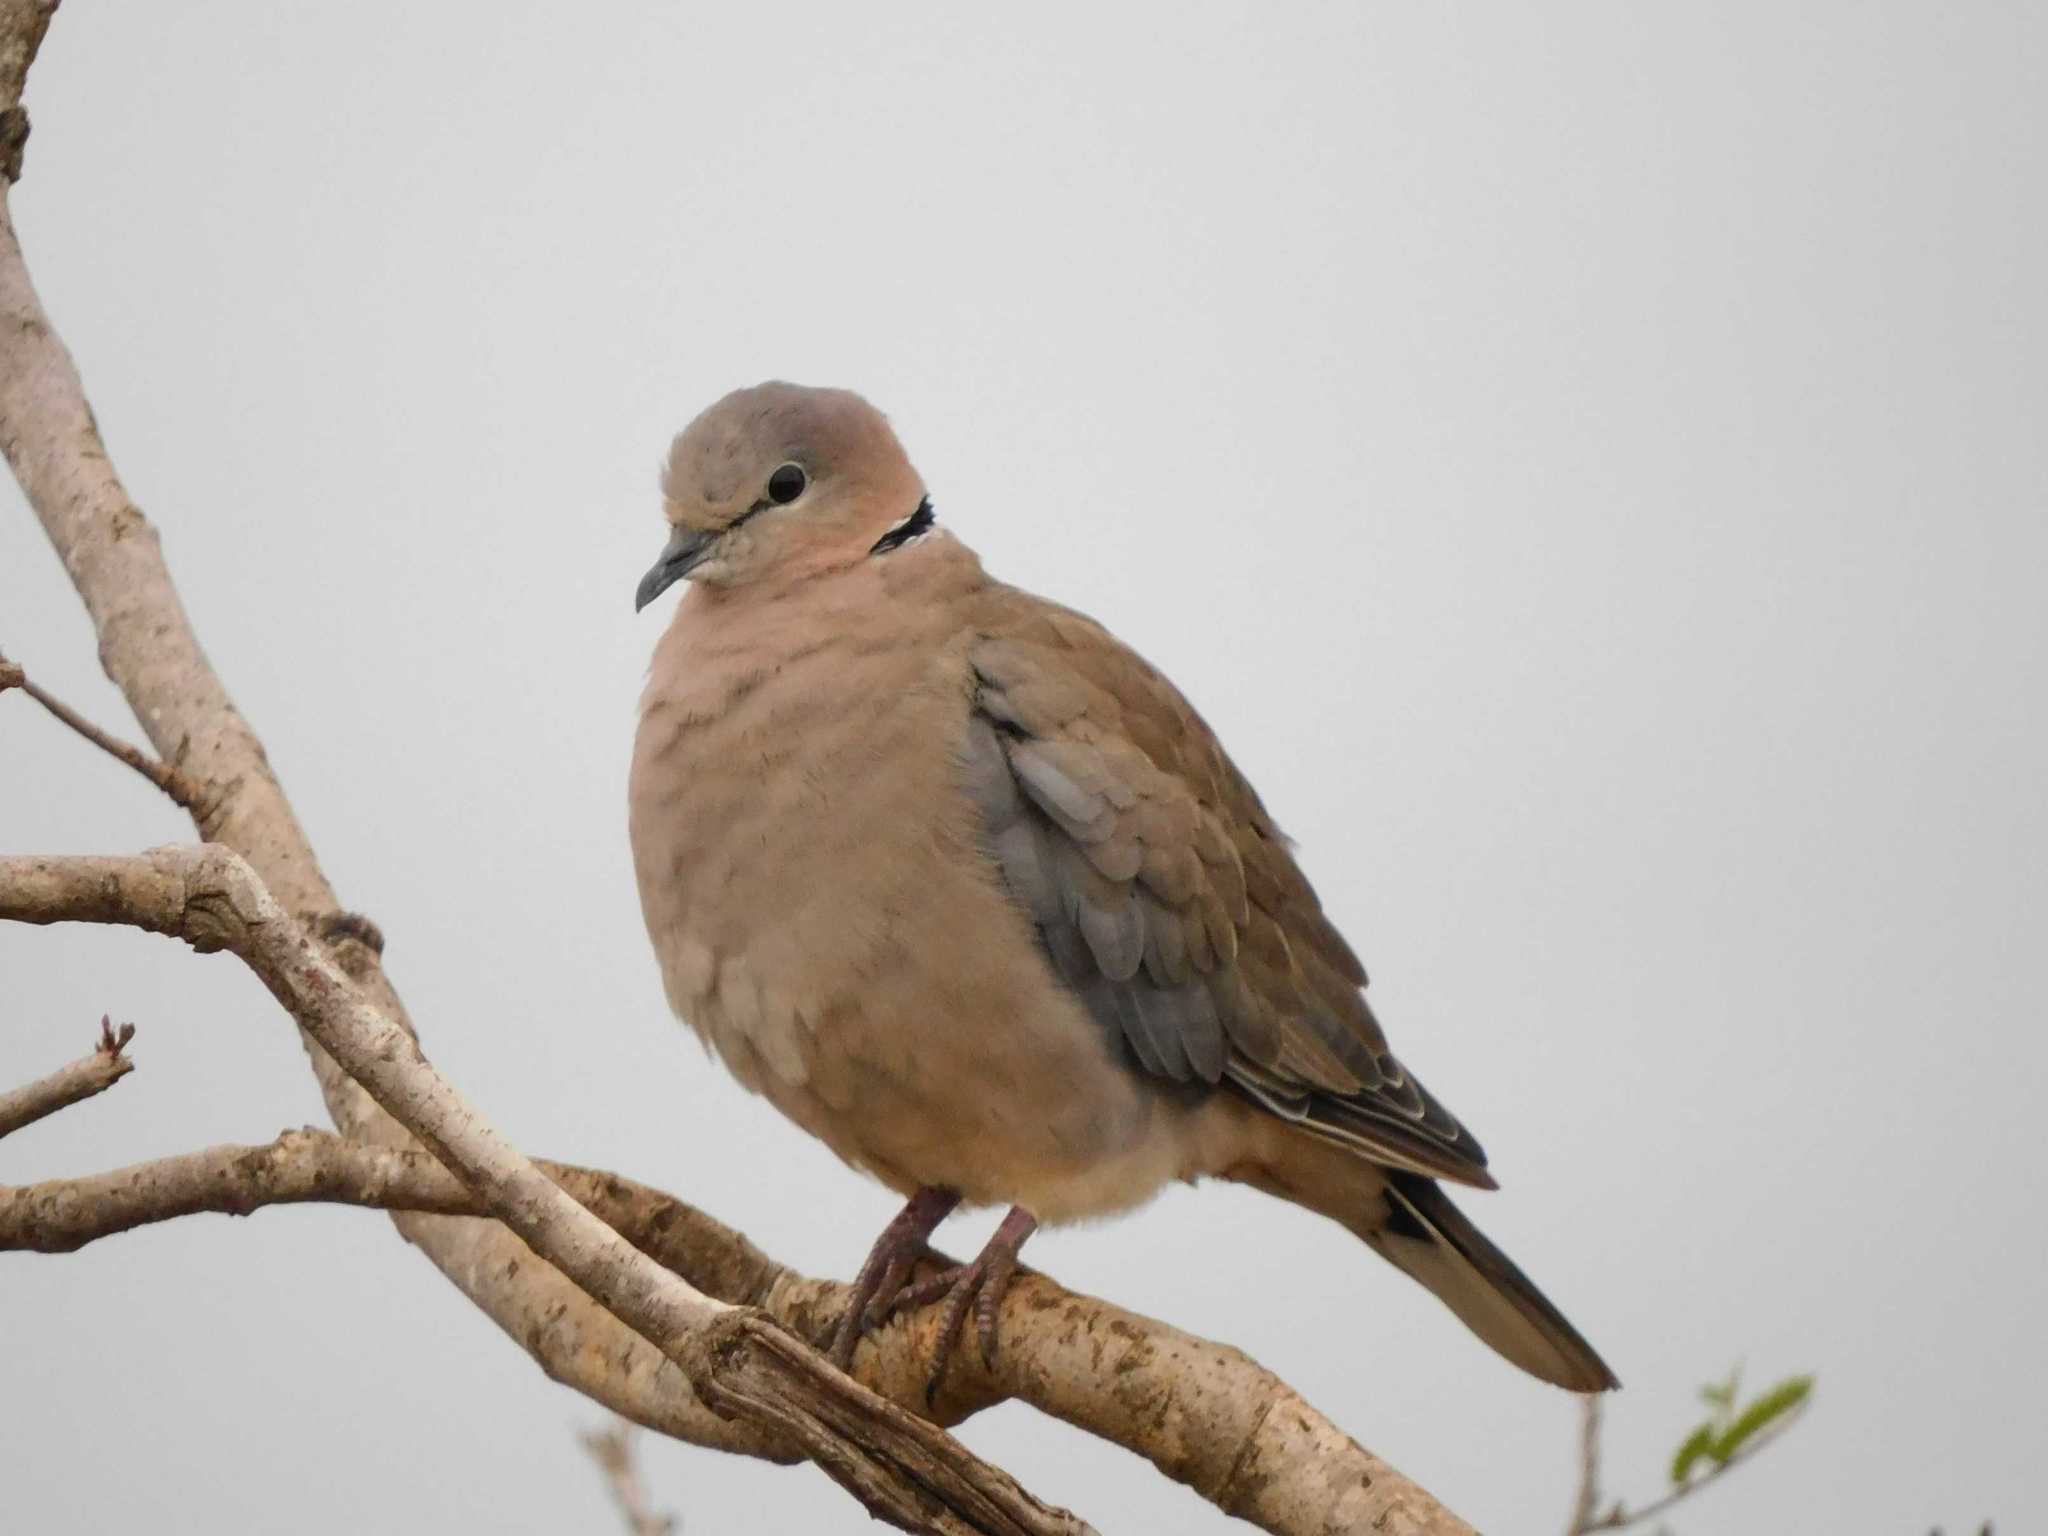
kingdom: Animalia
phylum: Chordata
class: Aves
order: Columbiformes
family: Columbidae
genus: Streptopelia
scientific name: Streptopelia capicola
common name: Ring-necked dove
